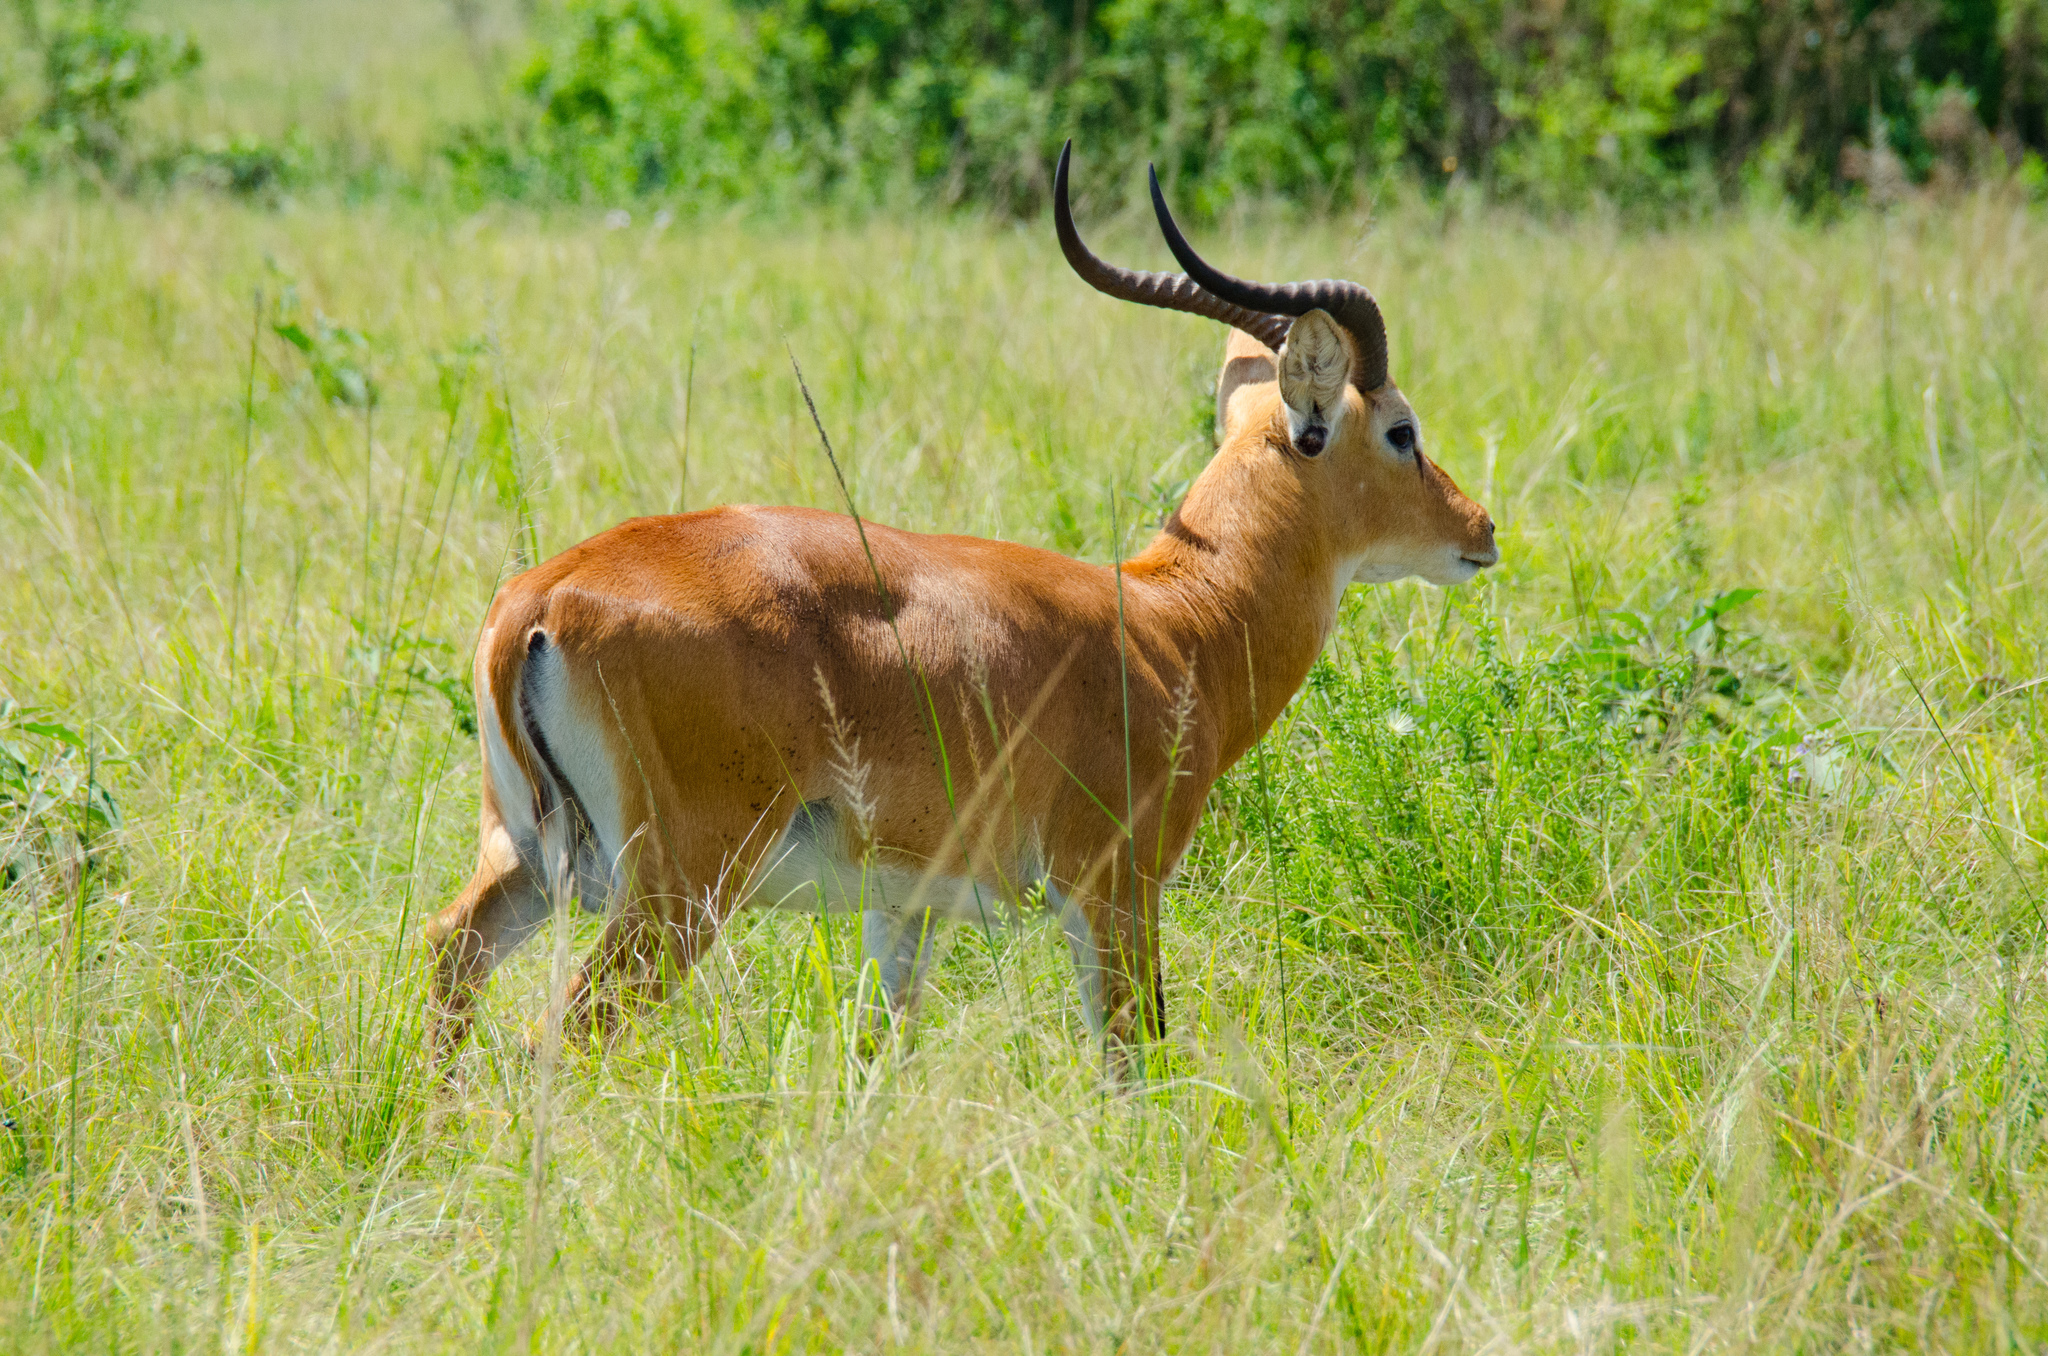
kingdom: Animalia
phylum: Chordata
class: Mammalia
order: Artiodactyla
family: Bovidae
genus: Kobus
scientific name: Kobus kob
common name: Kob
